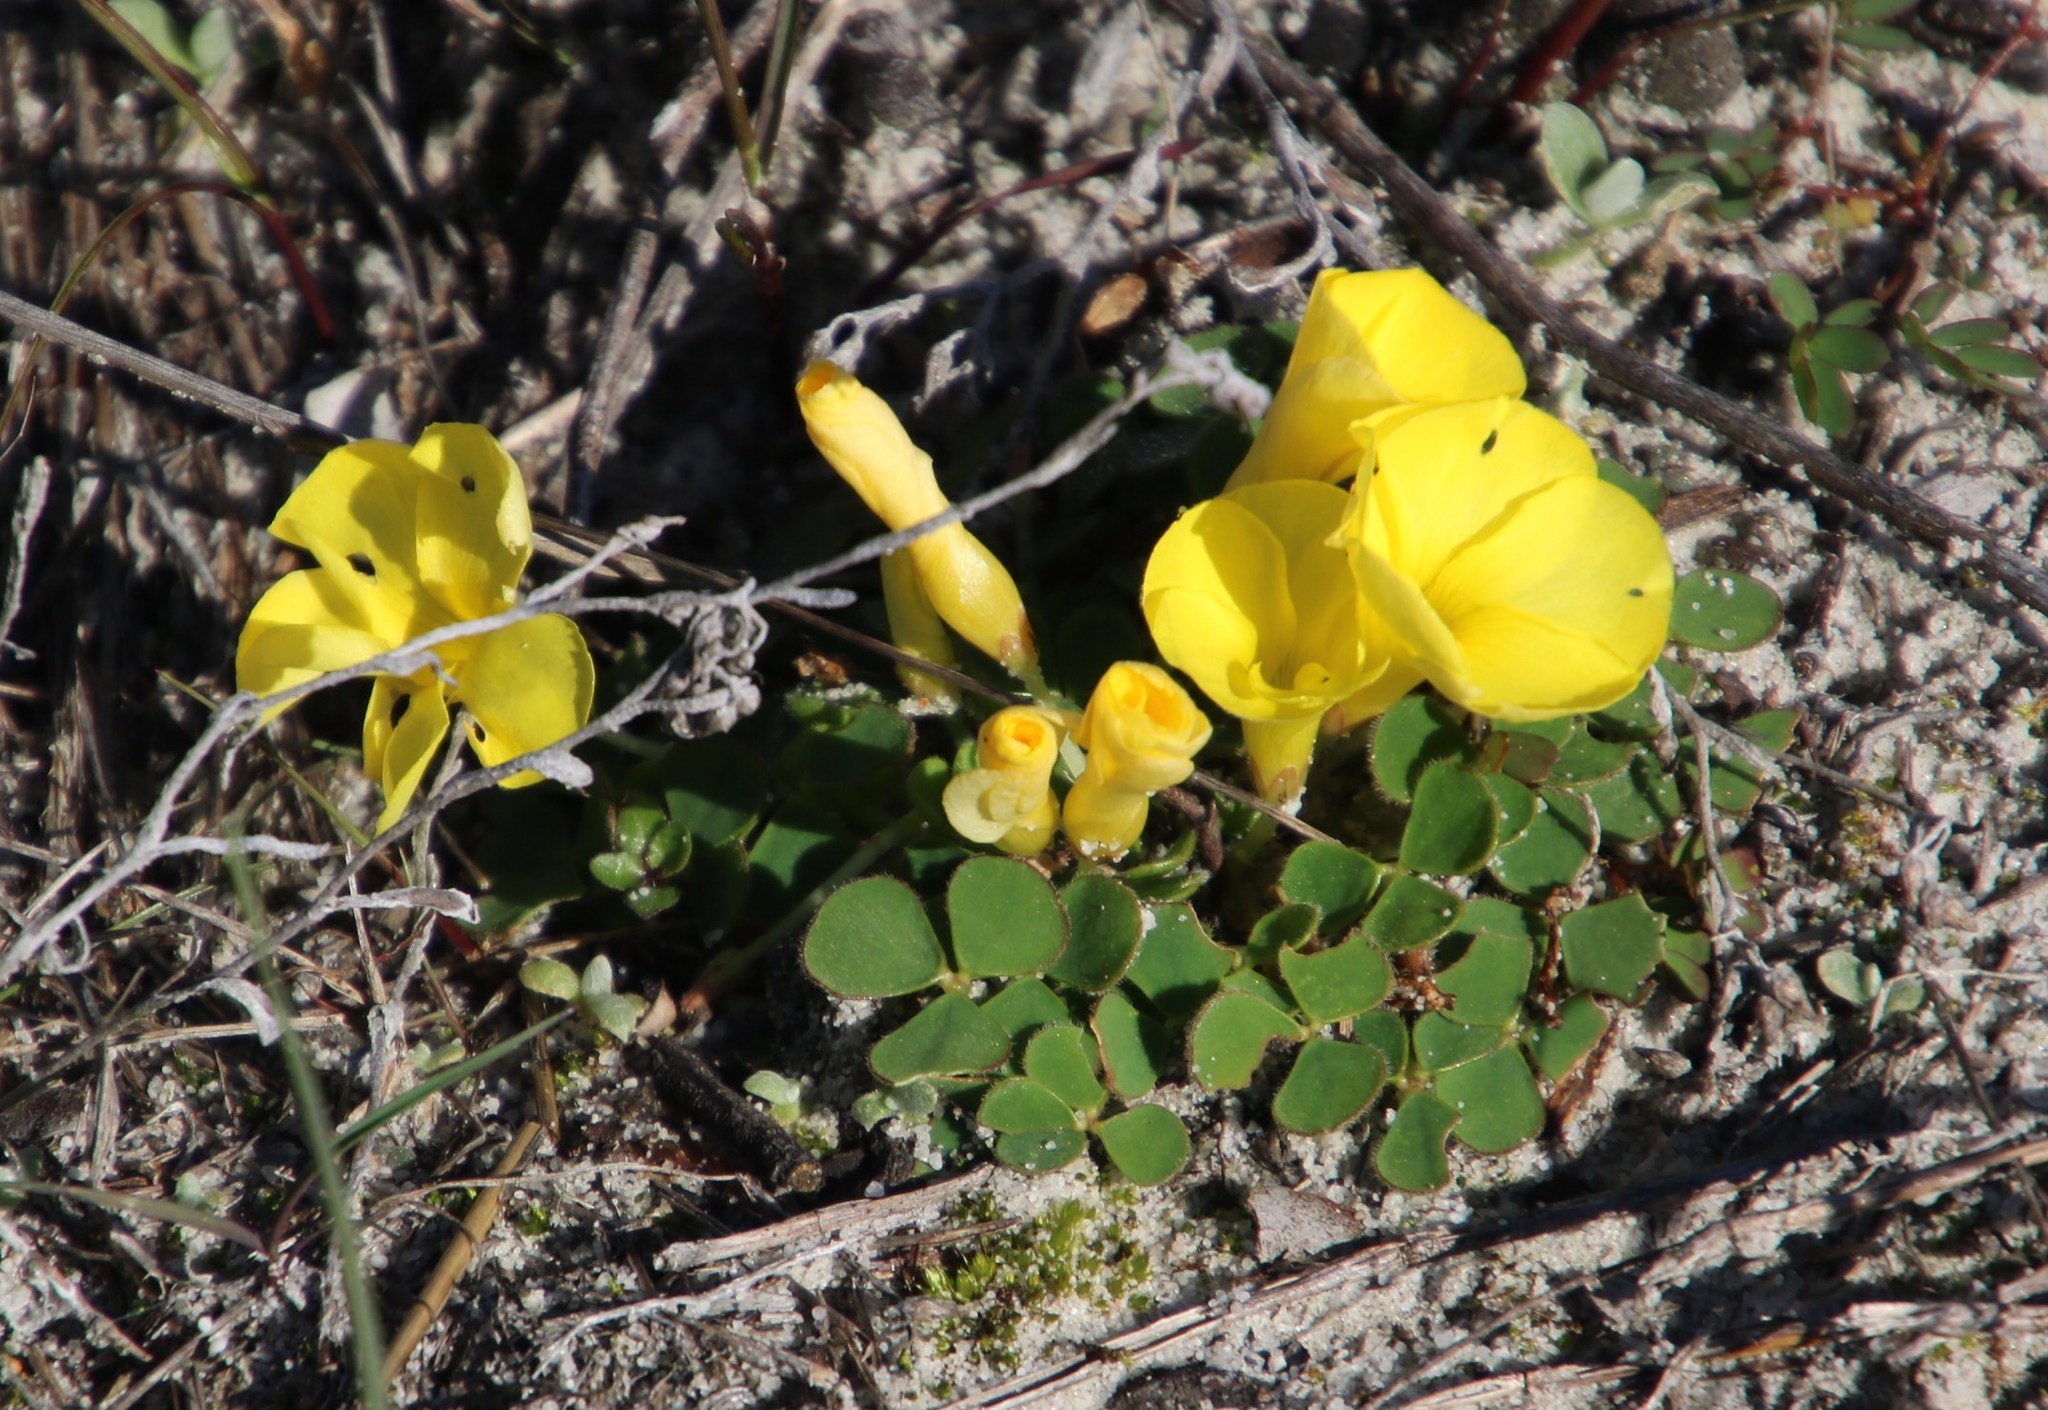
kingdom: Plantae
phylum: Tracheophyta
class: Magnoliopsida
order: Oxalidales
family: Oxalidaceae
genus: Oxalis
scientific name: Oxalis luteola
